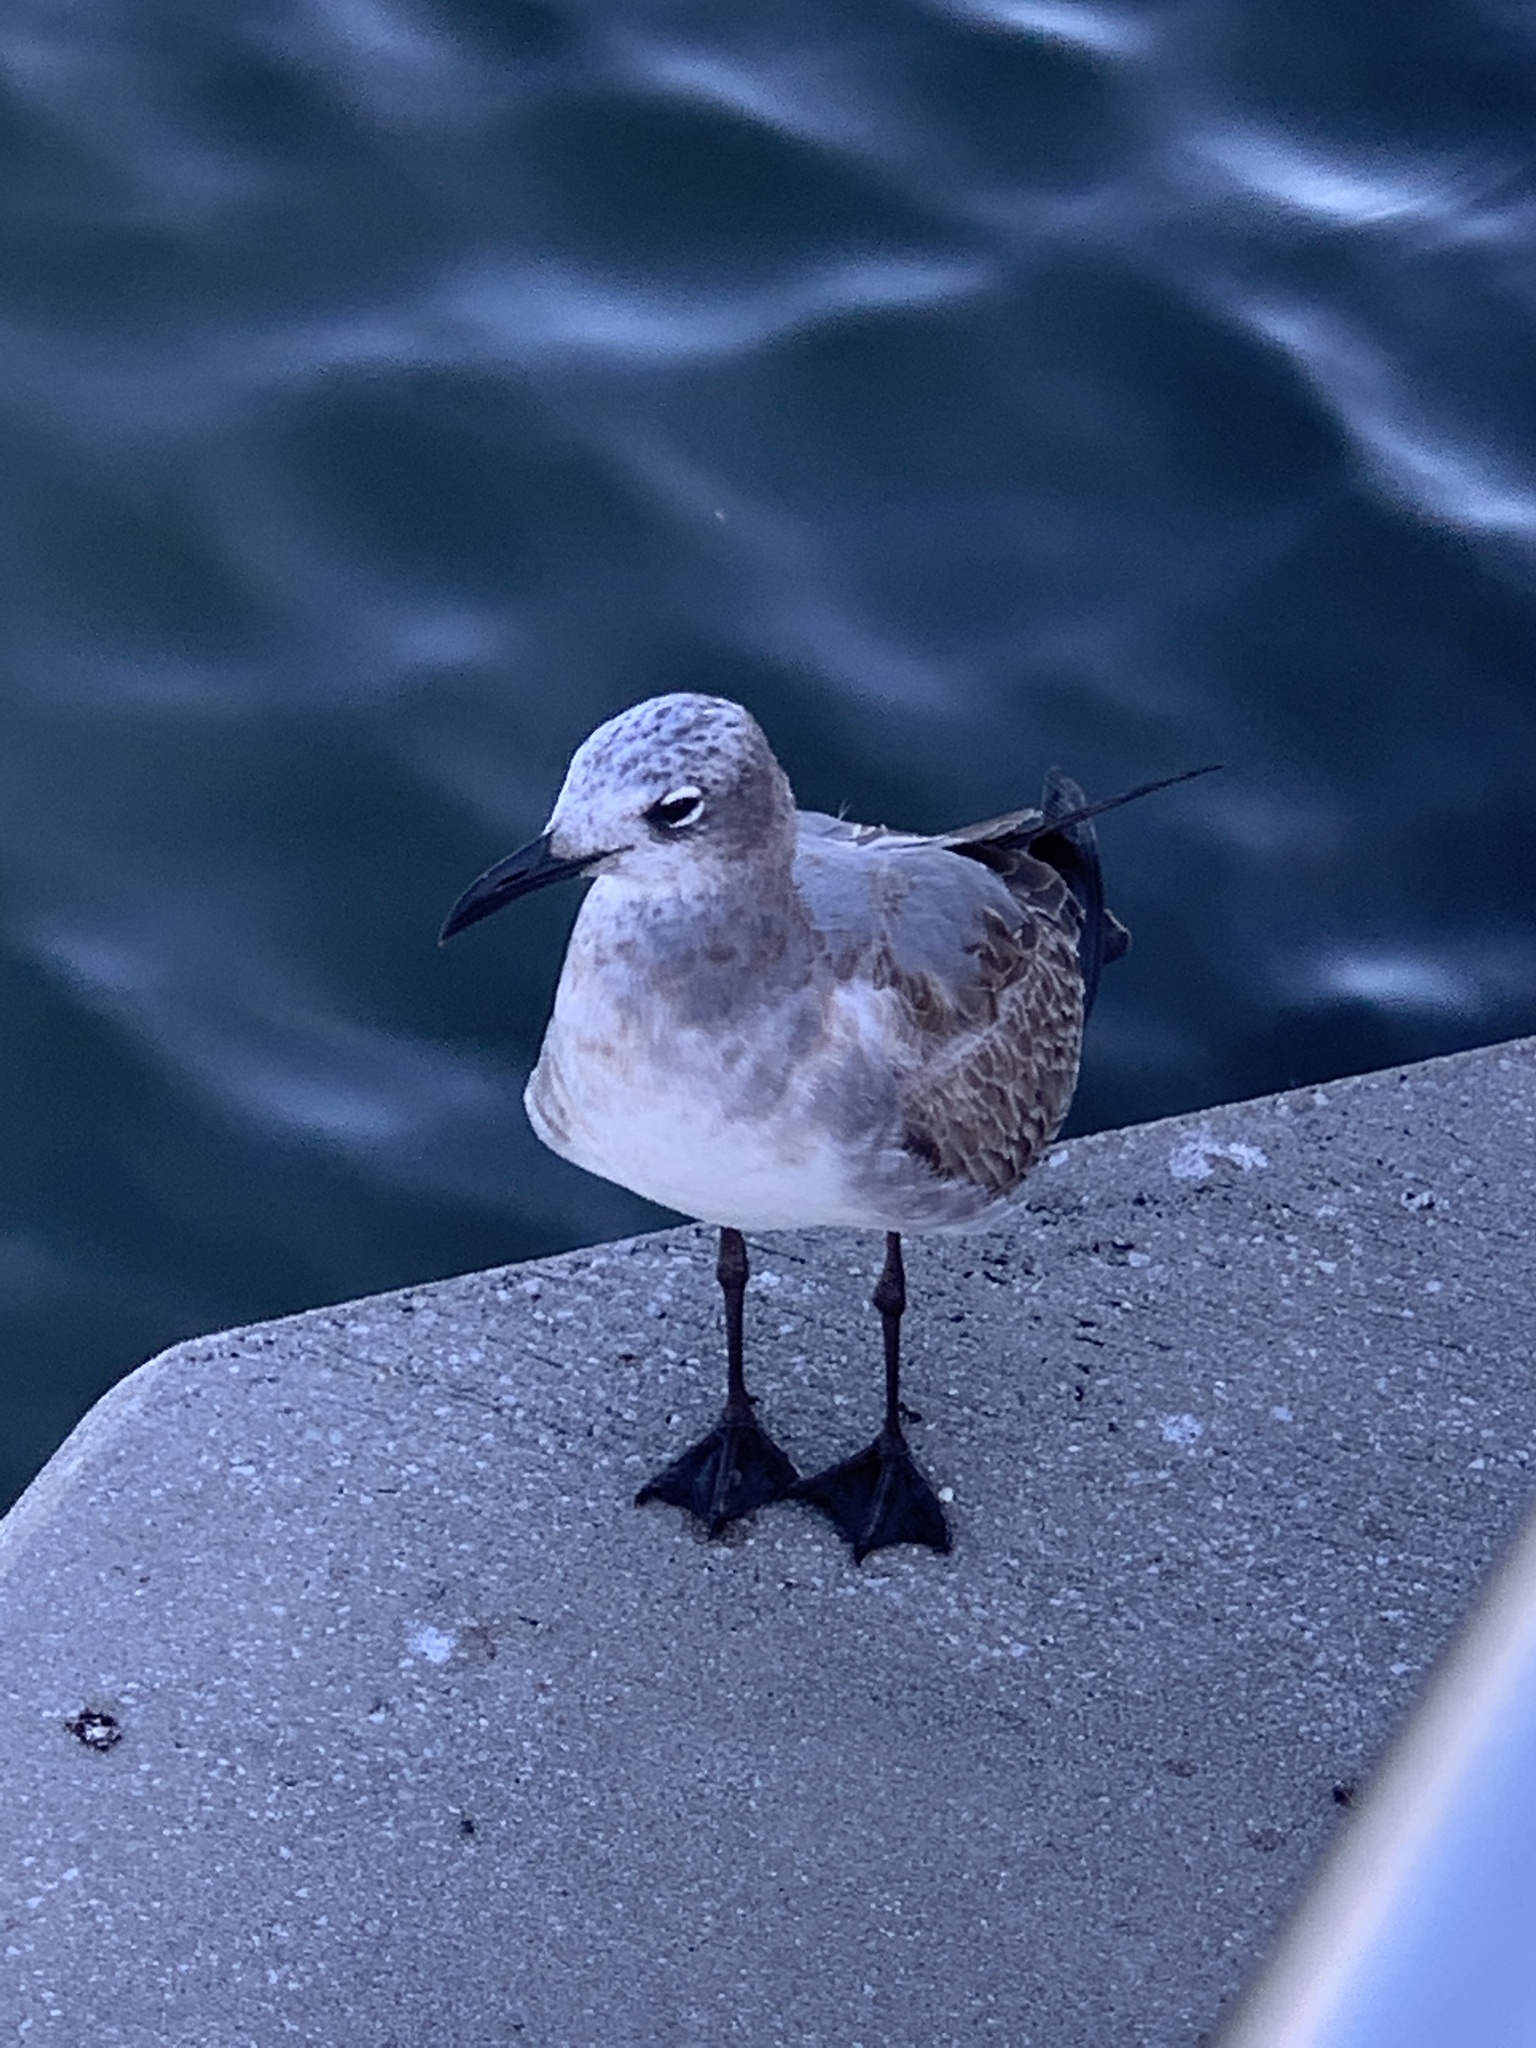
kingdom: Animalia
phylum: Chordata
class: Aves
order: Charadriiformes
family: Laridae
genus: Leucophaeus
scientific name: Leucophaeus atricilla
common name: Laughing gull
